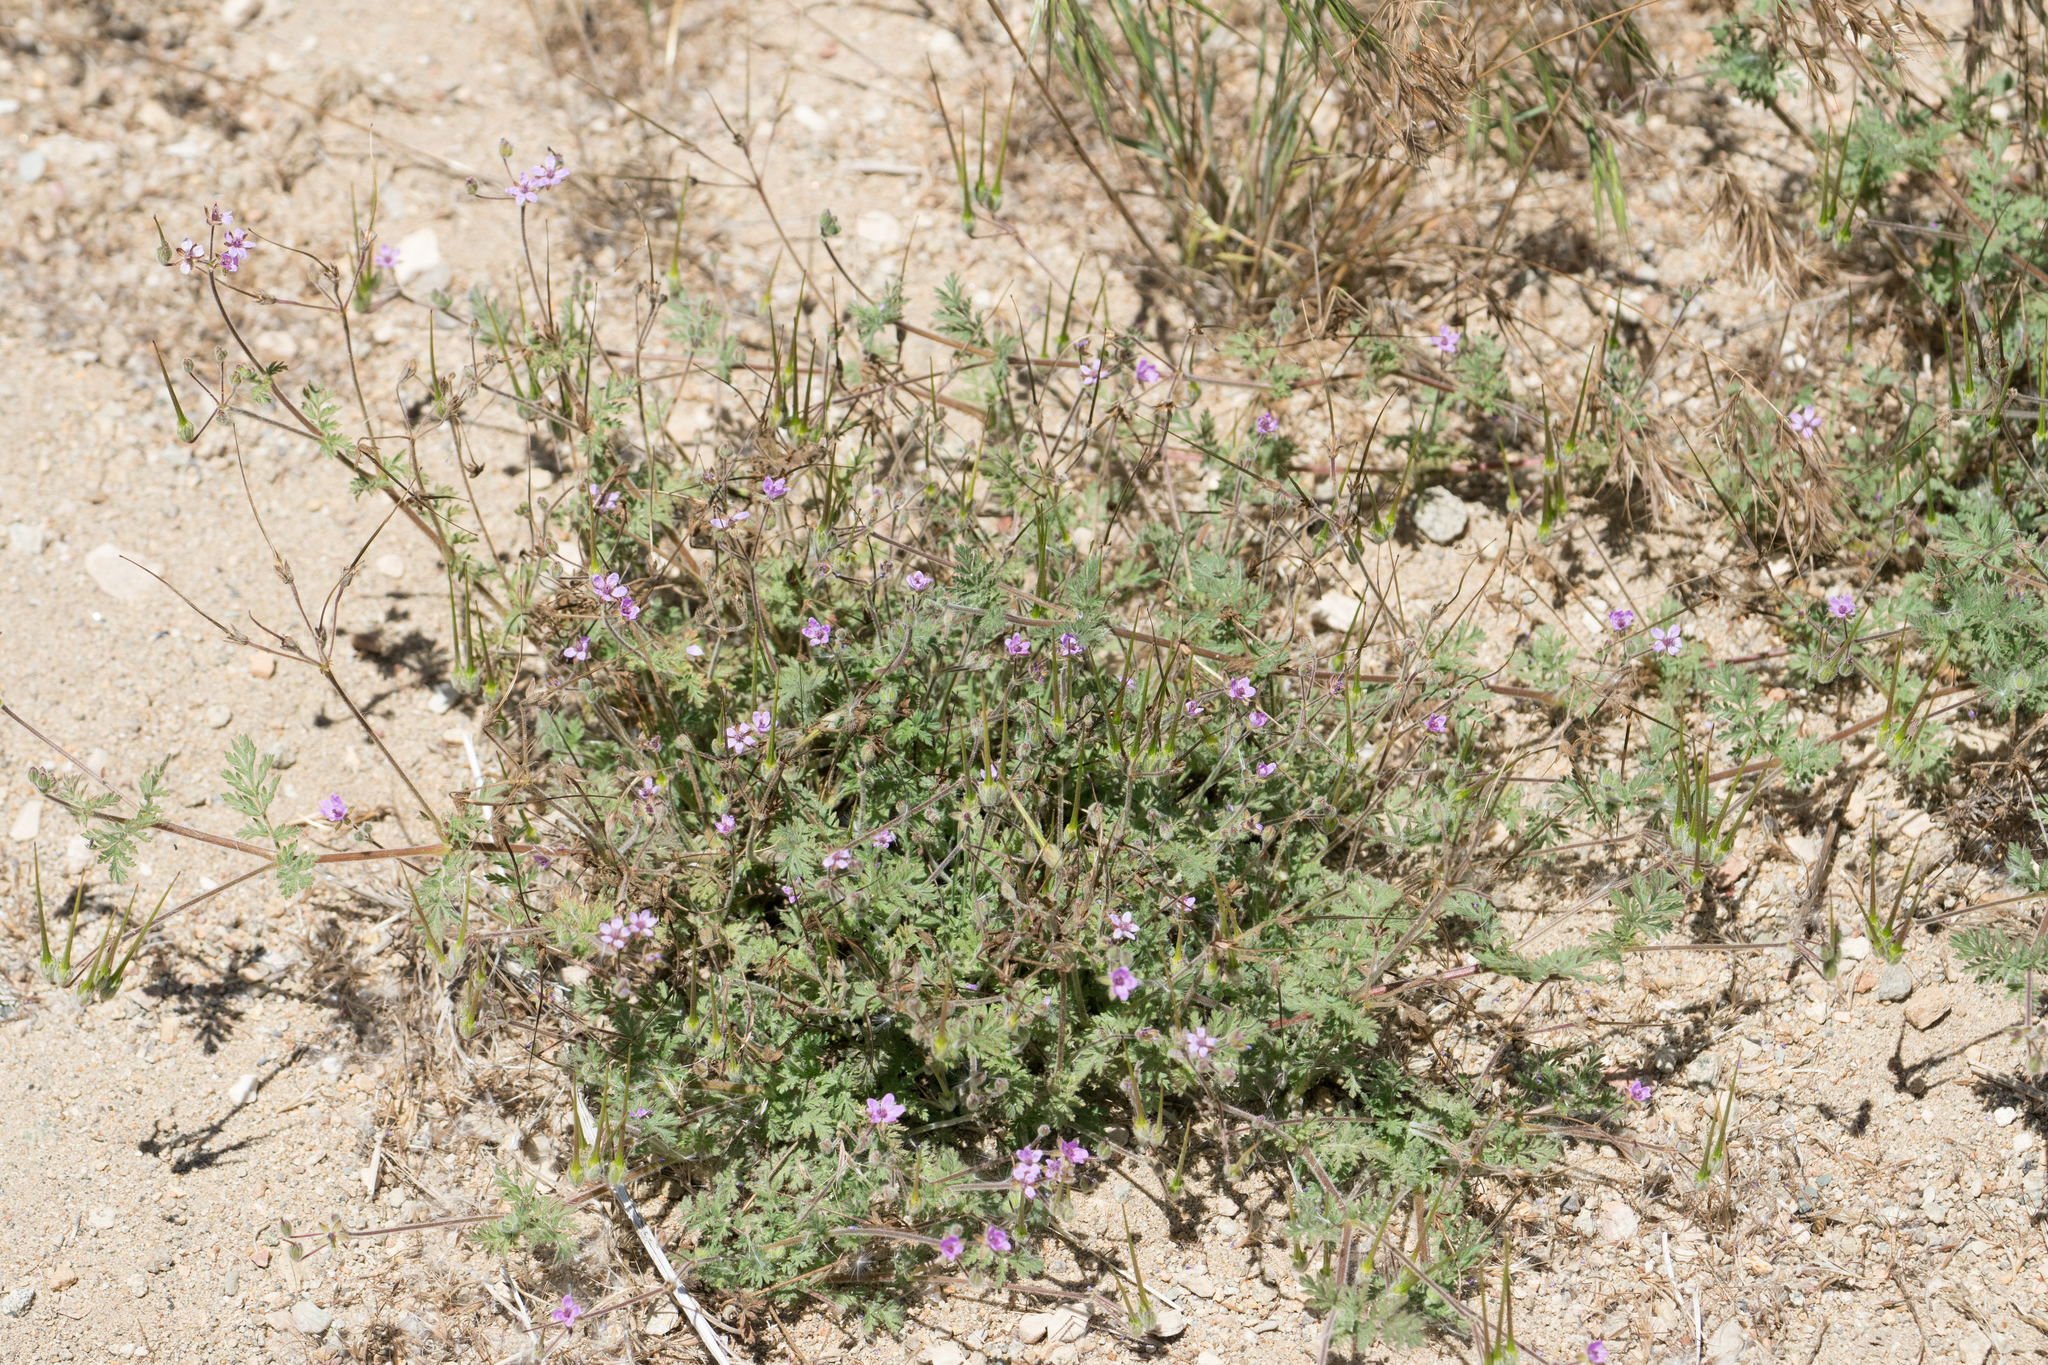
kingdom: Plantae
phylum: Tracheophyta
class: Magnoliopsida
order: Geraniales
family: Geraniaceae
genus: Erodium
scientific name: Erodium cicutarium
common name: Common stork's-bill
